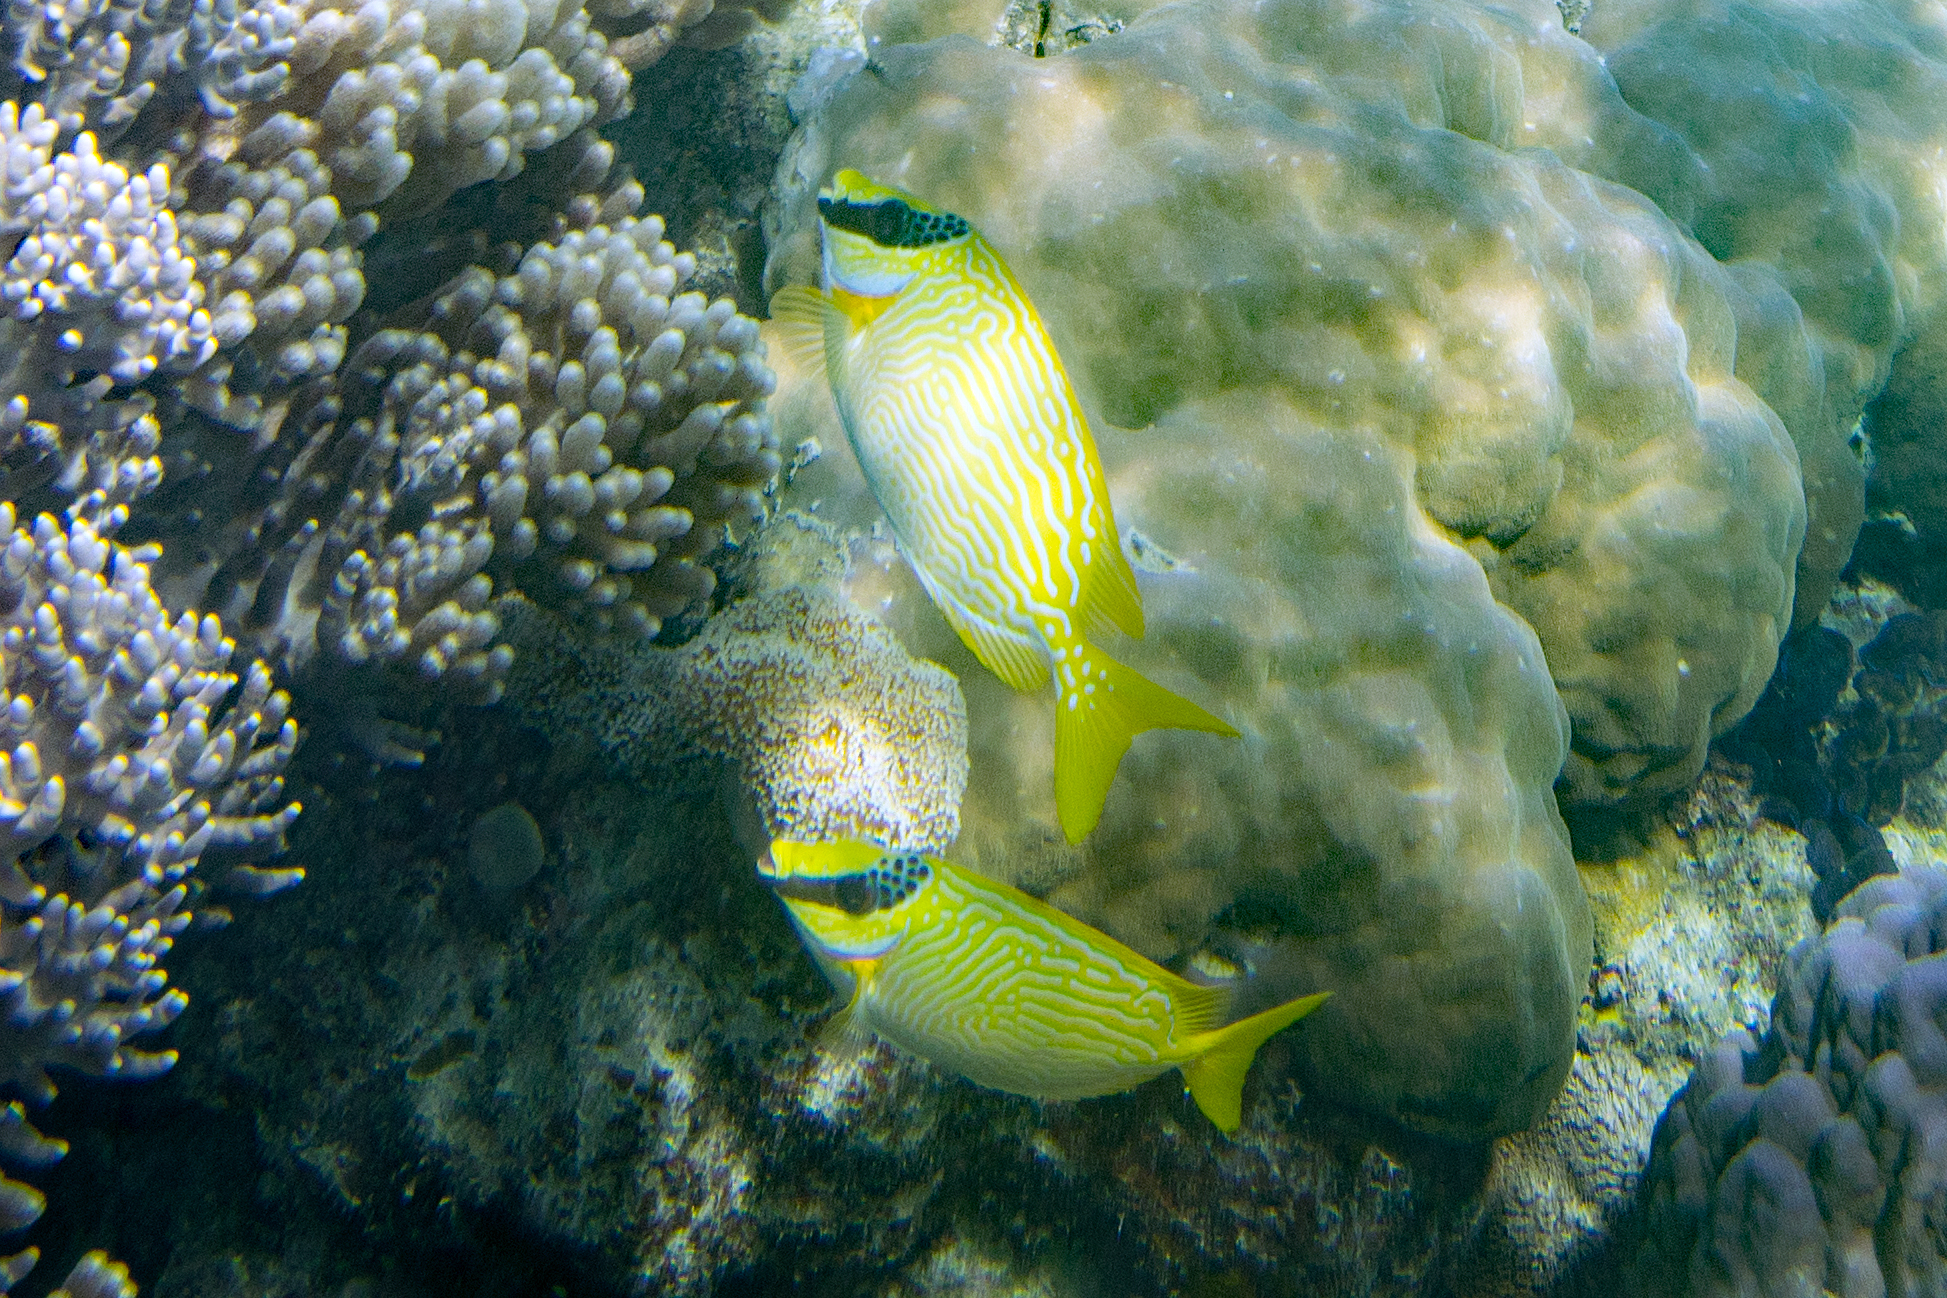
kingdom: Animalia
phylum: Chordata
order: Perciformes
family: Siganidae
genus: Siganus
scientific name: Siganus puellus
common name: Masked rabbitfish
